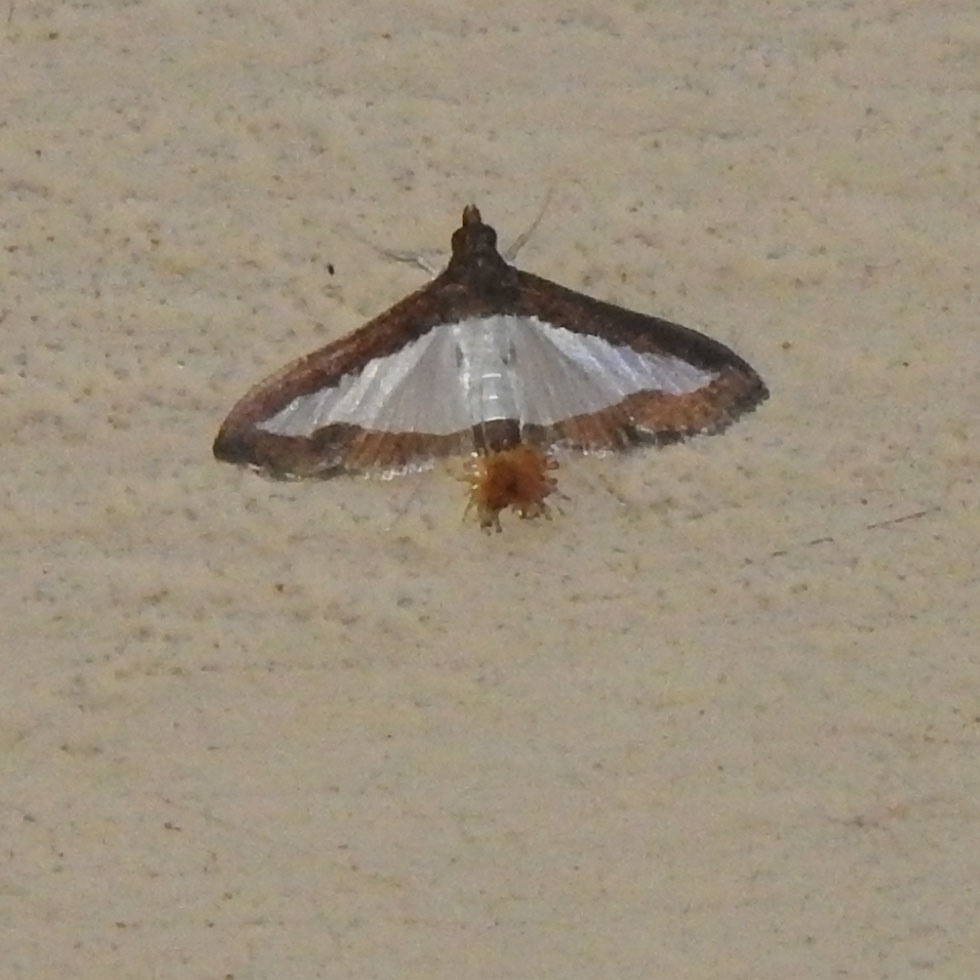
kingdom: Animalia
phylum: Arthropoda
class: Insecta
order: Lepidoptera
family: Crambidae
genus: Diaphania
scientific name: Diaphania indica
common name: Cucumber moth
